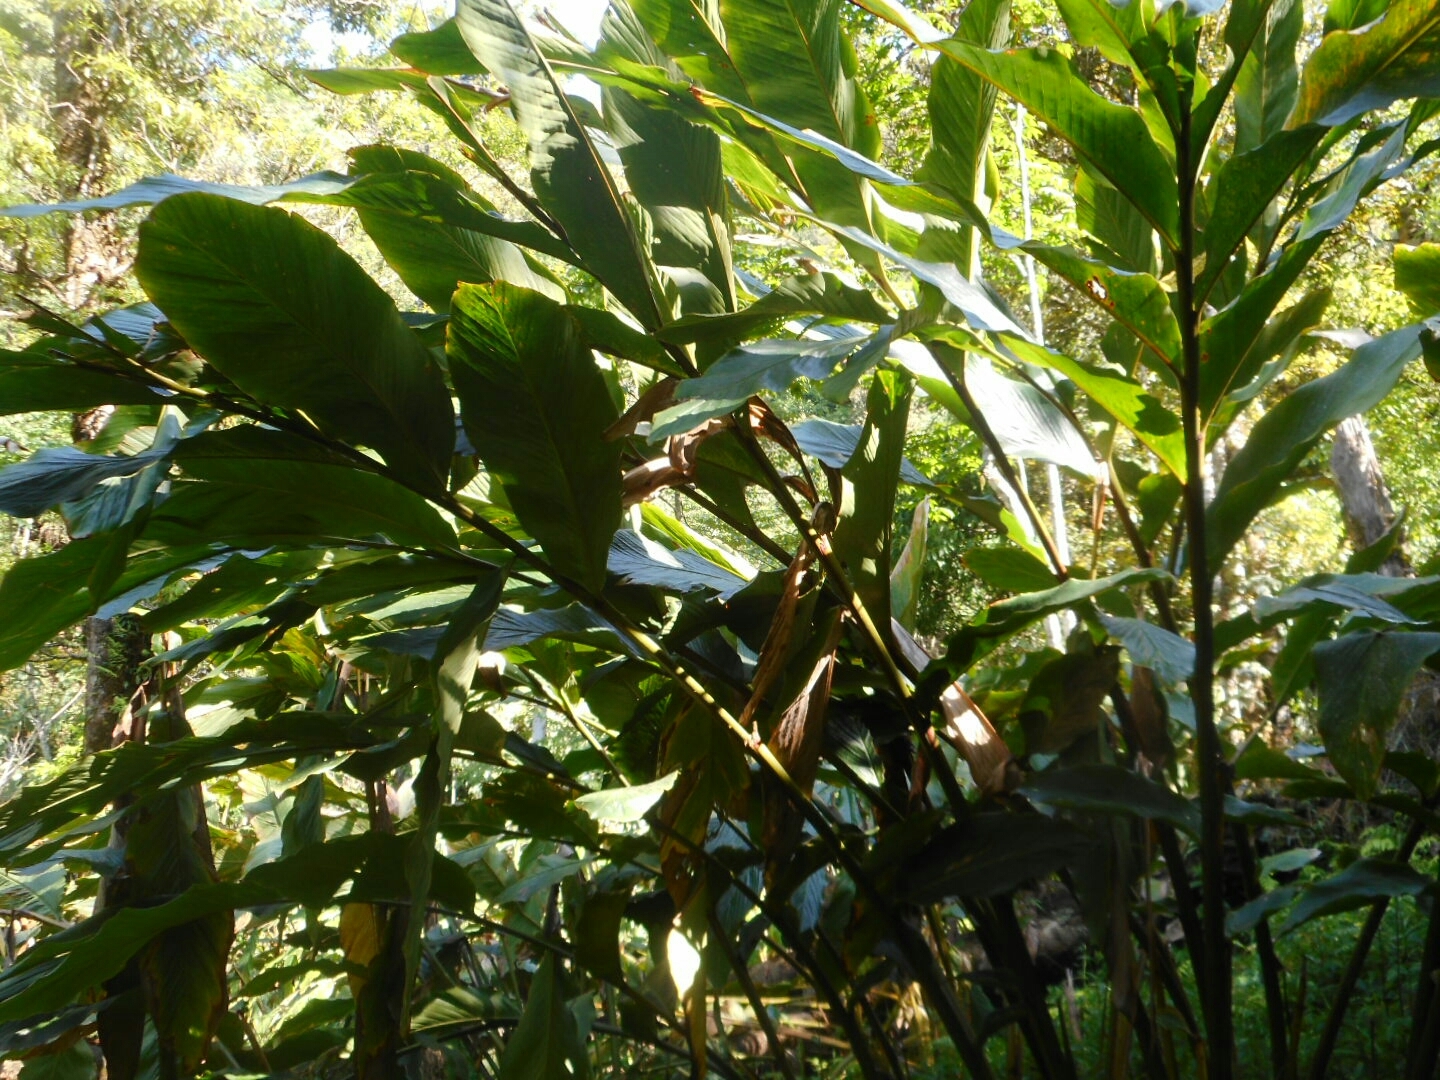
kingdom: Plantae
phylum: Tracheophyta
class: Liliopsida
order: Zingiberales
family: Zingiberaceae
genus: Lanxangia
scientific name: Lanxangia tsao-ko
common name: Tsao-ko cardamom
